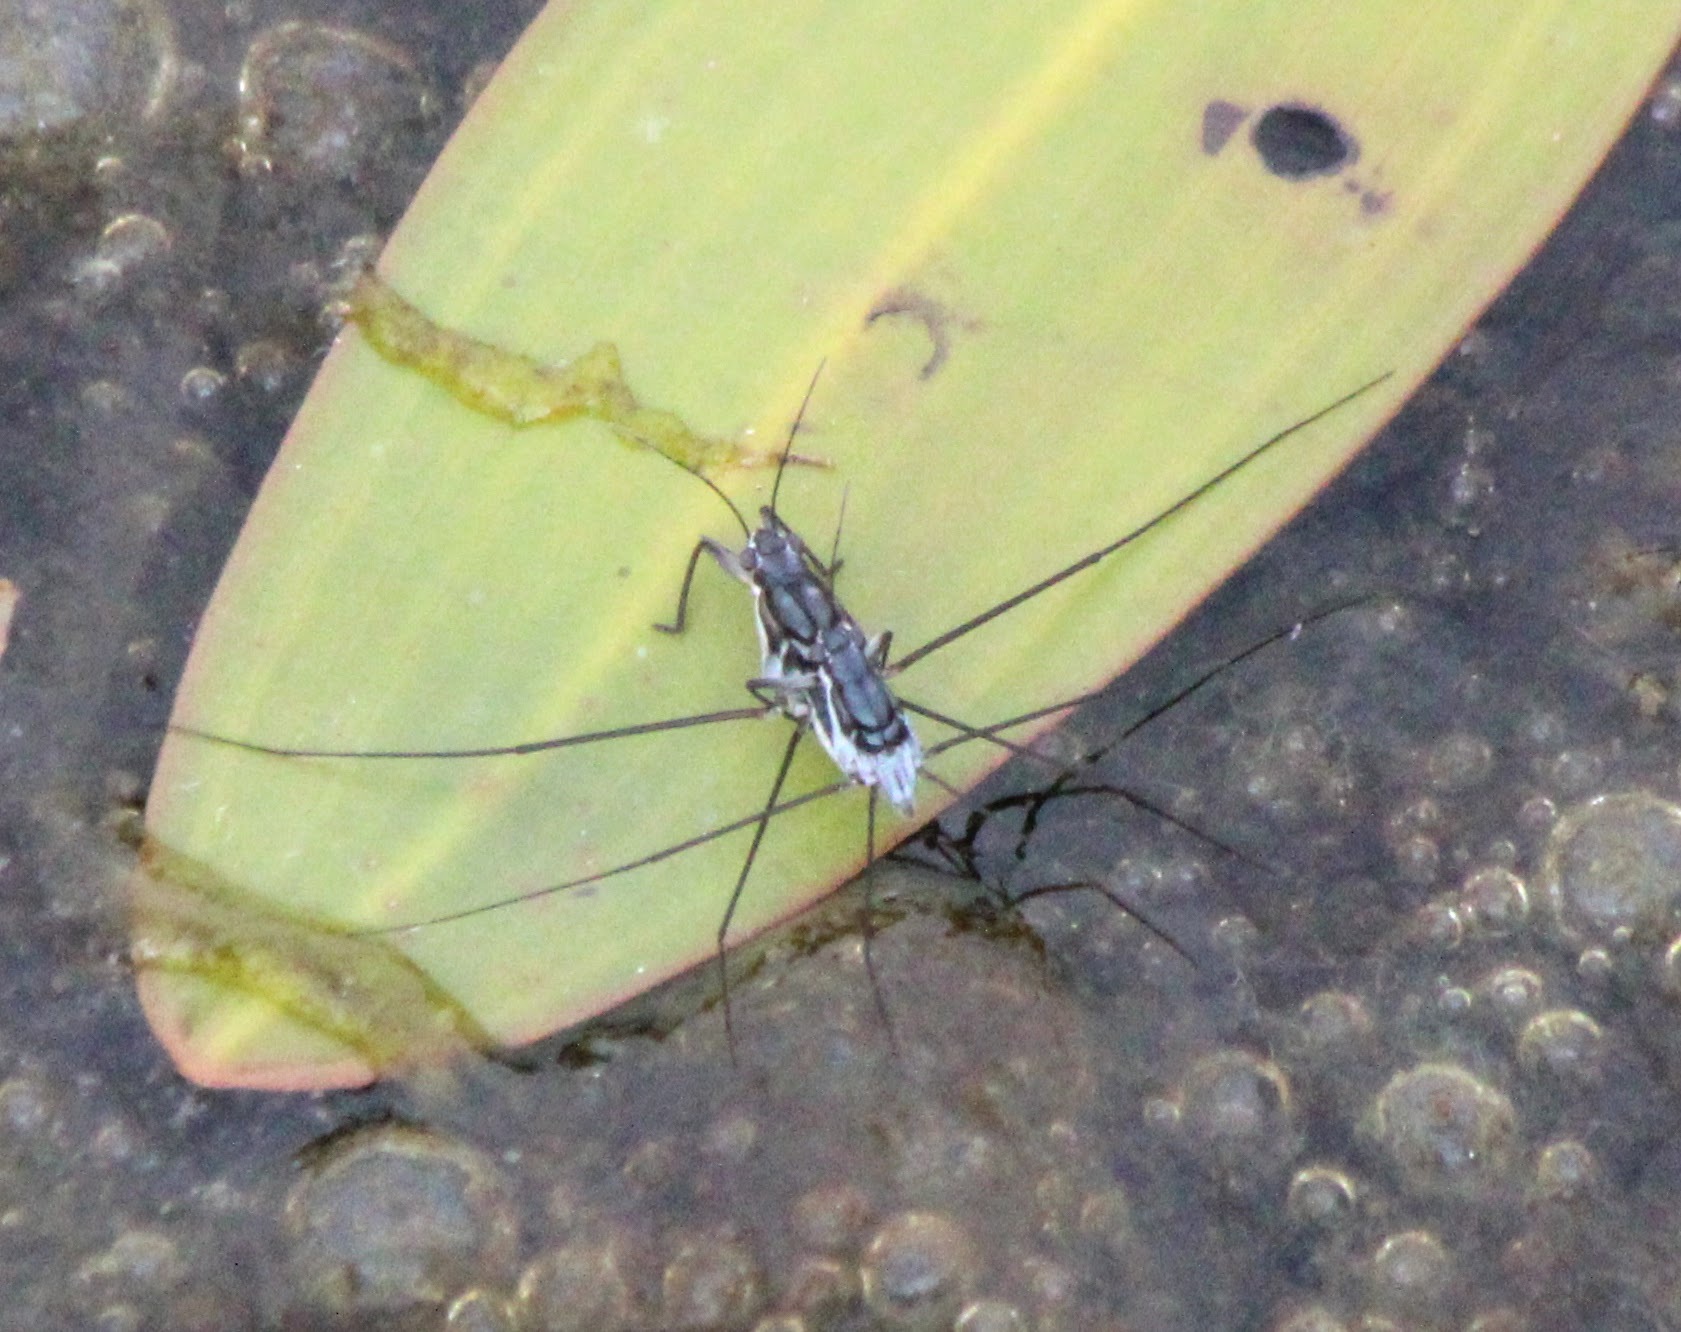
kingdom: Animalia
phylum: Arthropoda
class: Insecta
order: Hemiptera
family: Gerridae
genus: Neogerris
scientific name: Neogerris hesione
